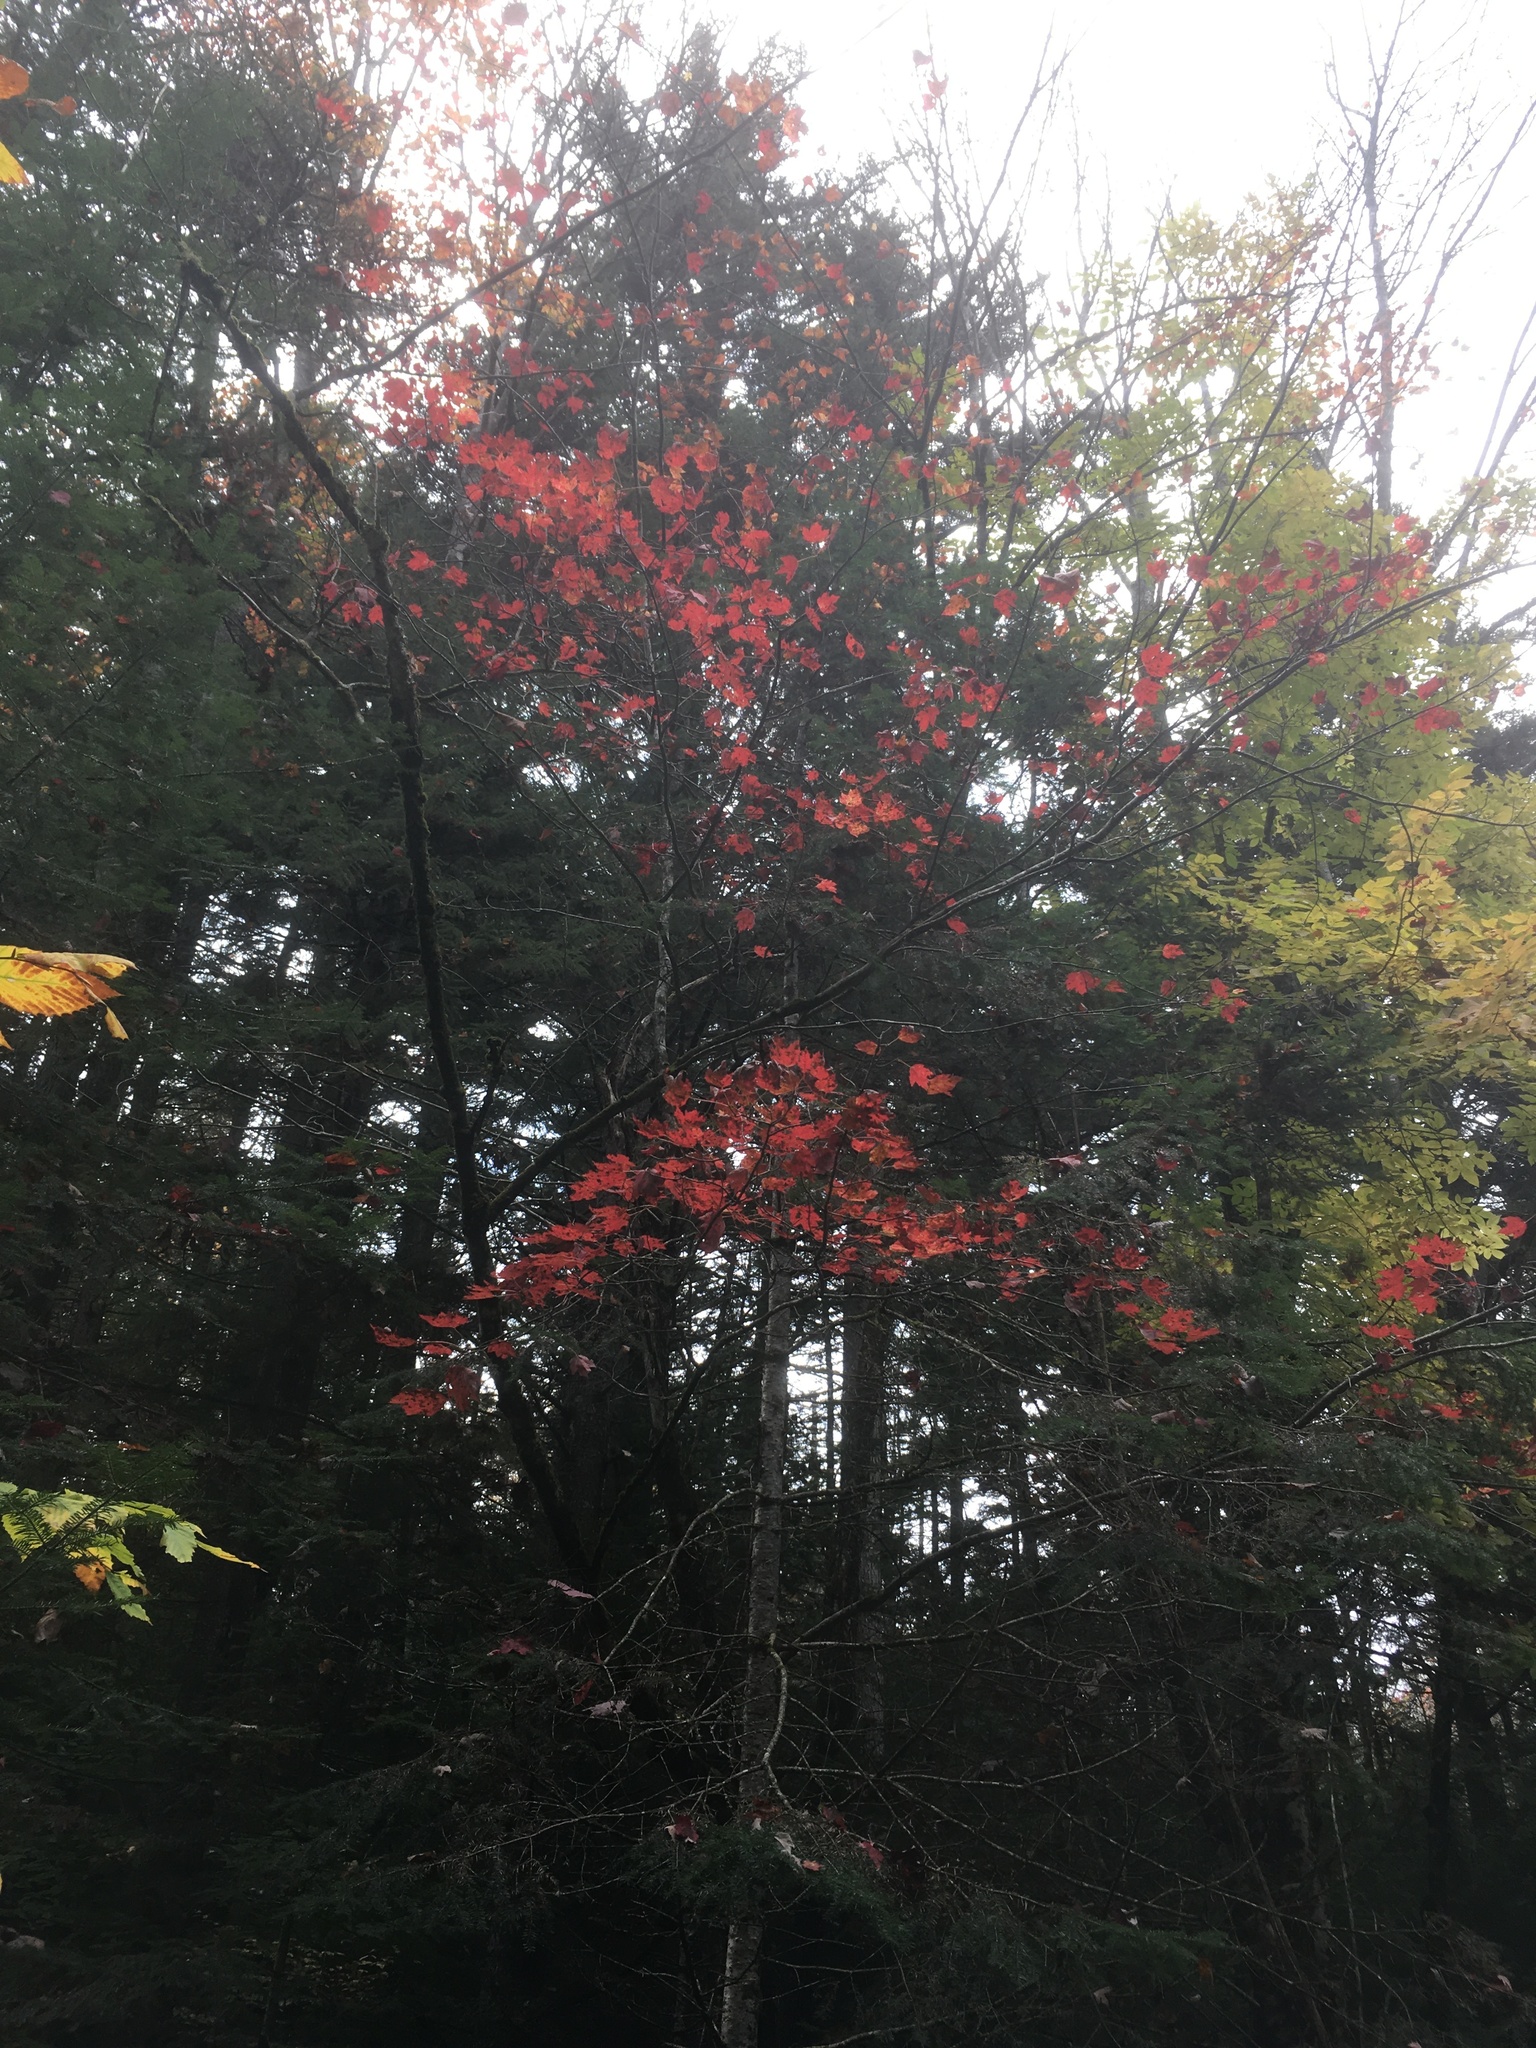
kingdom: Plantae
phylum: Tracheophyta
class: Magnoliopsida
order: Sapindales
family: Sapindaceae
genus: Acer
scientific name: Acer rubrum
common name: Red maple
